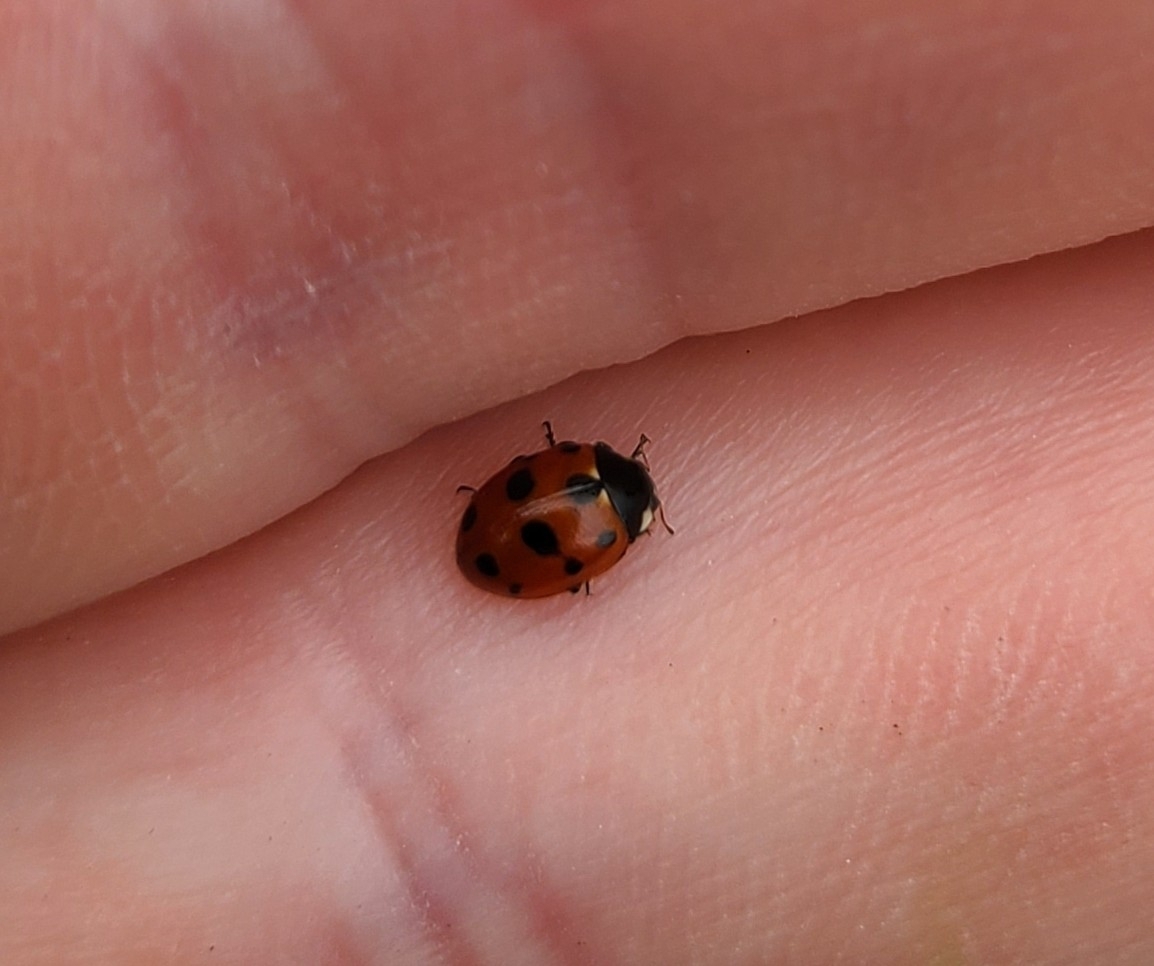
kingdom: Animalia
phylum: Arthropoda
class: Insecta
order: Coleoptera
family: Coccinellidae
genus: Coccinella
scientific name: Coccinella undecimpunctata
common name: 11-spot ladybird
